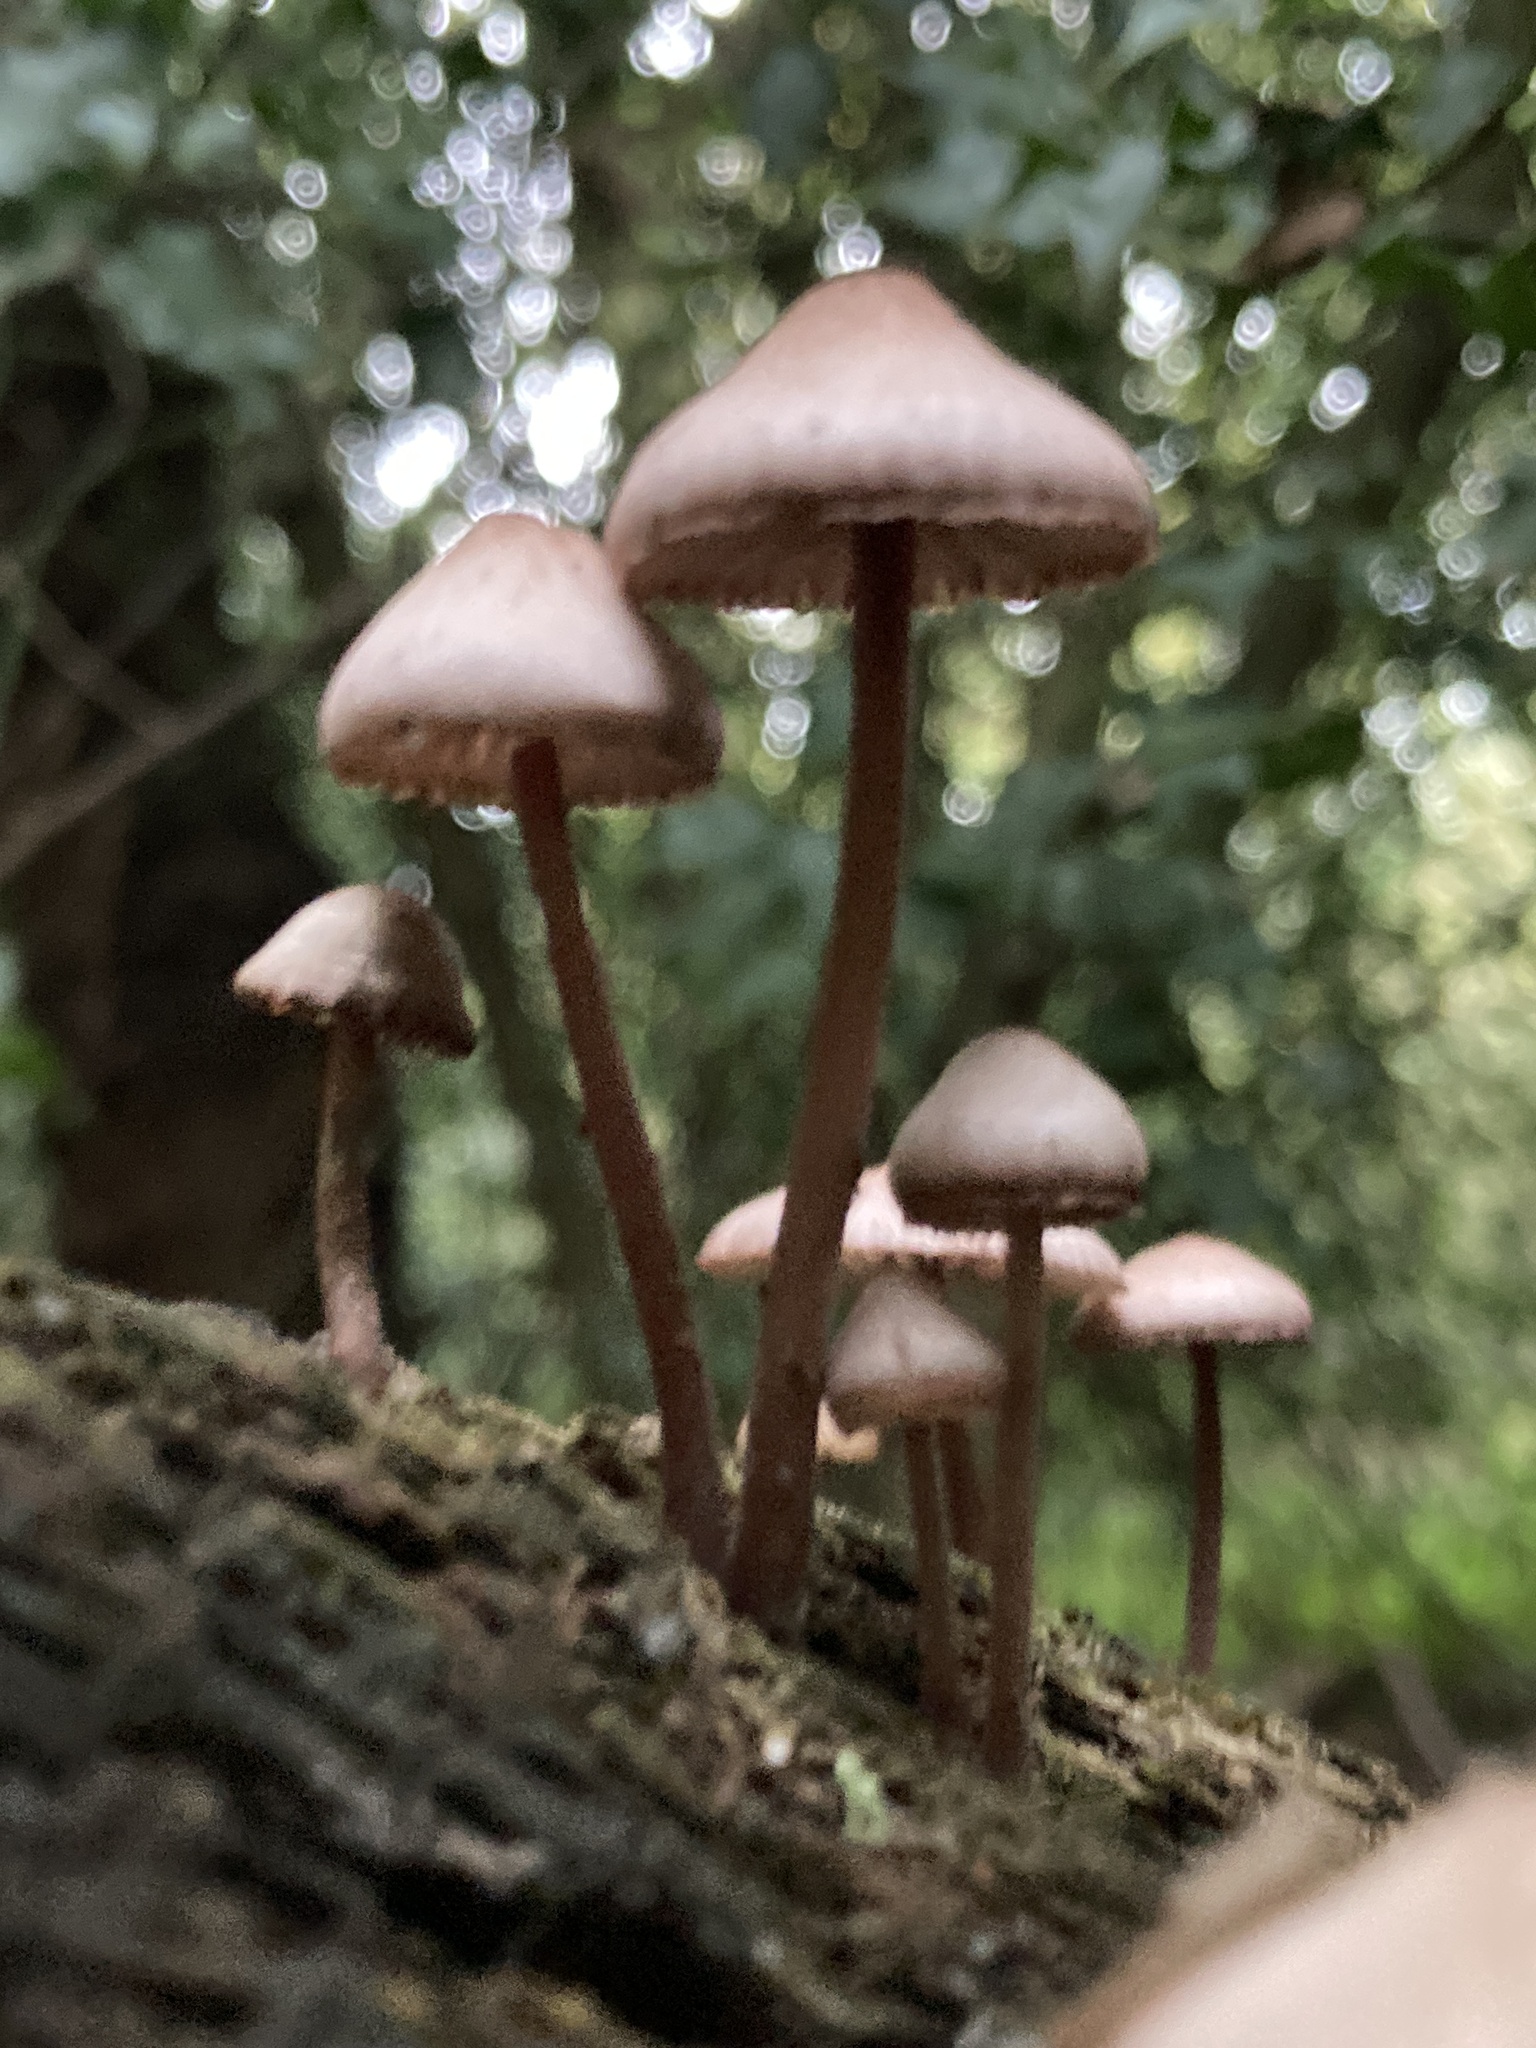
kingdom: Fungi
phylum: Basidiomycota
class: Agaricomycetes
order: Agaricales
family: Mycenaceae
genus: Mycena
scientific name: Mycena haematopus
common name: Burgundydrop bonnet
